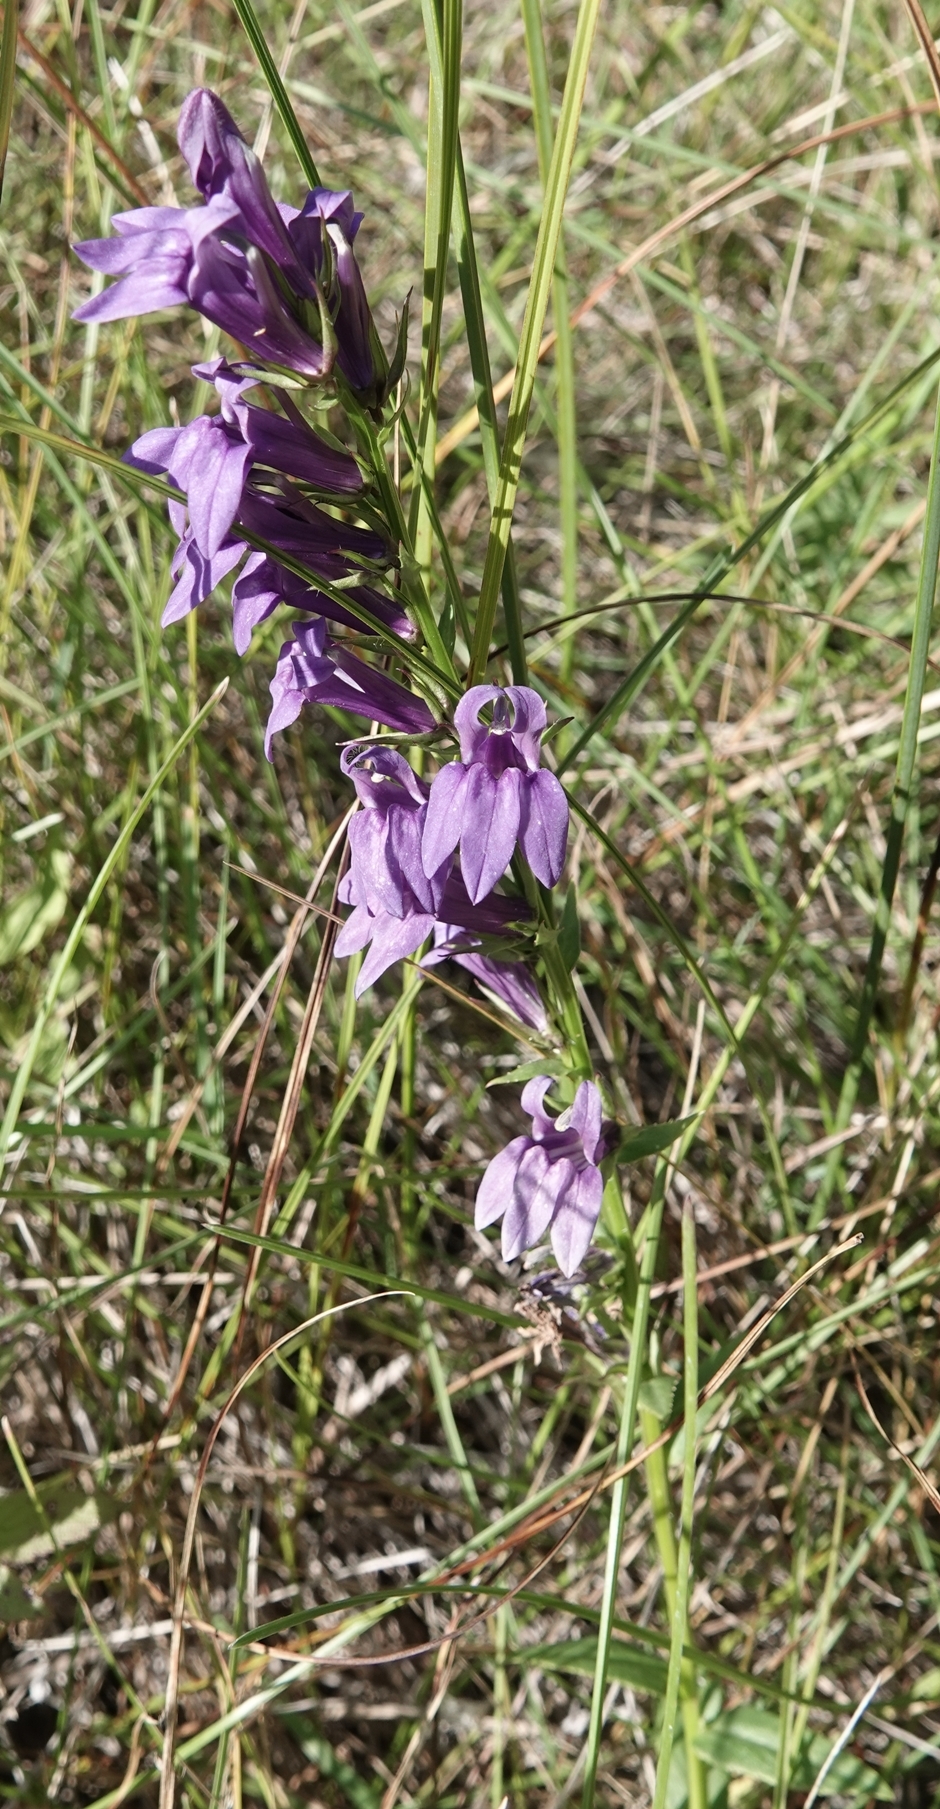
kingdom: Plantae
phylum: Tracheophyta
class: Magnoliopsida
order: Asterales
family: Campanulaceae
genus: Lobelia
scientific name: Lobelia siphilitica
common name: Great lobelia
